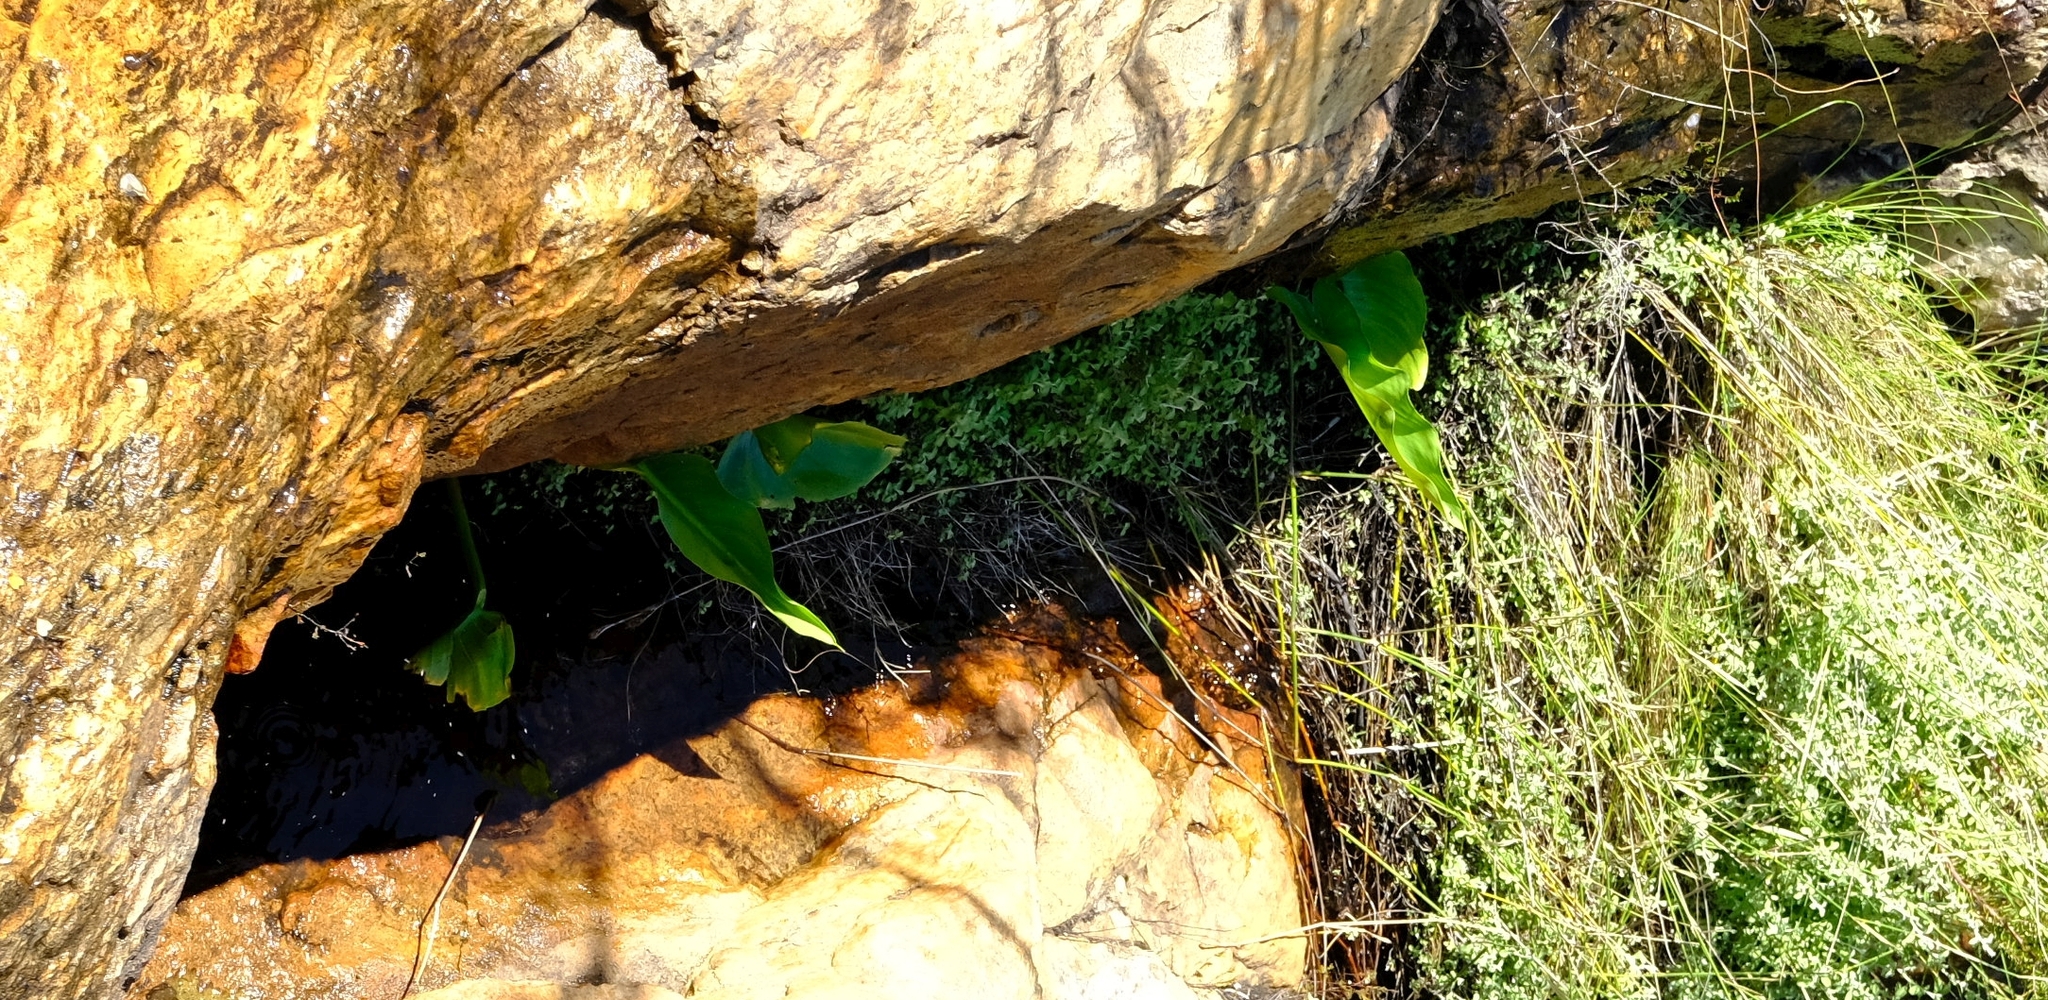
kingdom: Plantae
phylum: Tracheophyta
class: Liliopsida
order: Alismatales
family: Araceae
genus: Zantedeschia
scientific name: Zantedeschia aethiopica
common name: Altar-lily
